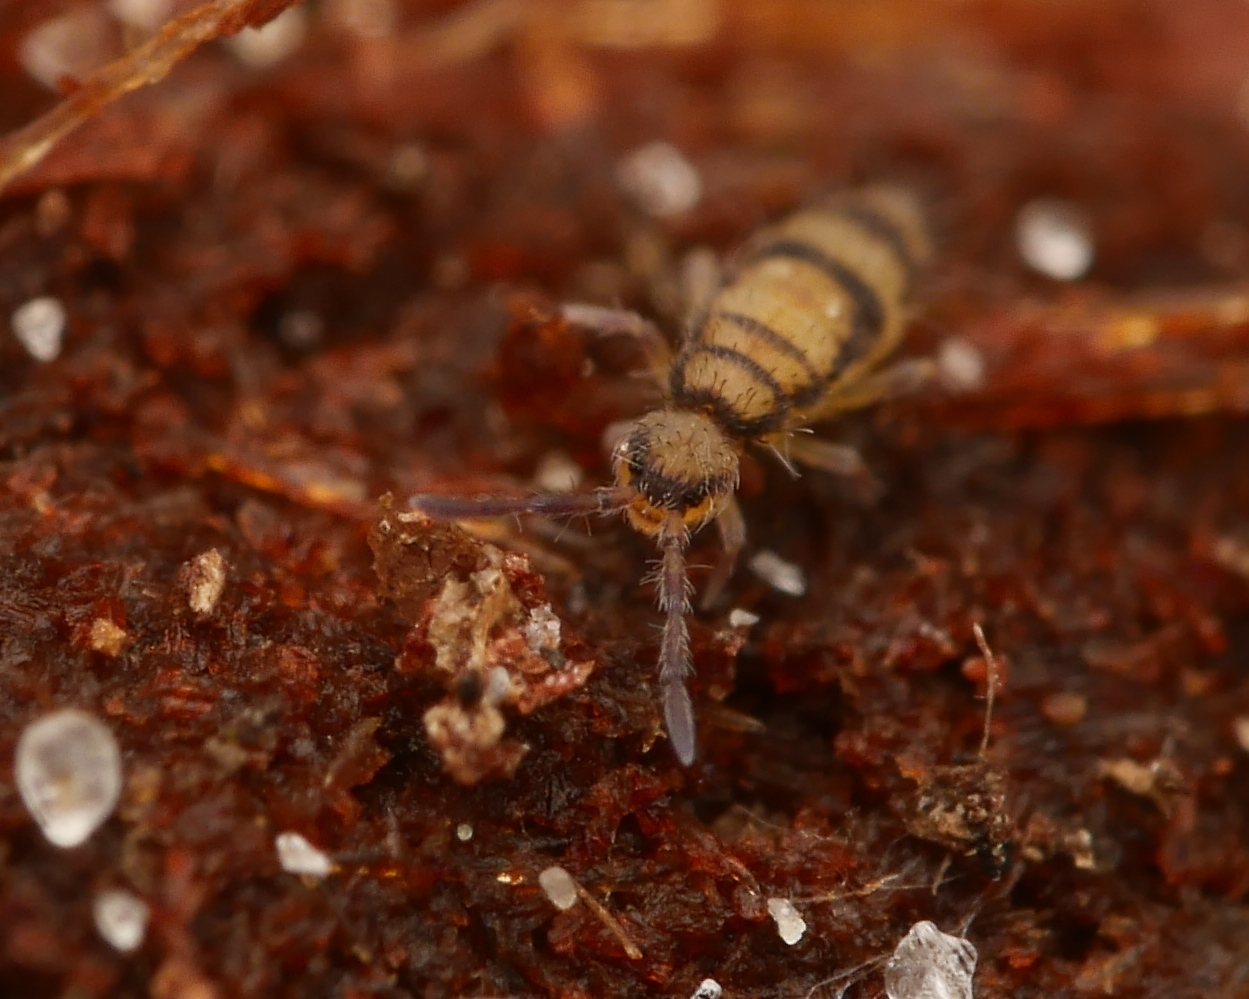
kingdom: Animalia
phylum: Arthropoda
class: Collembola
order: Entomobryomorpha
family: Entomobryidae
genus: Entomobrya
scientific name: Entomobrya corticalis
